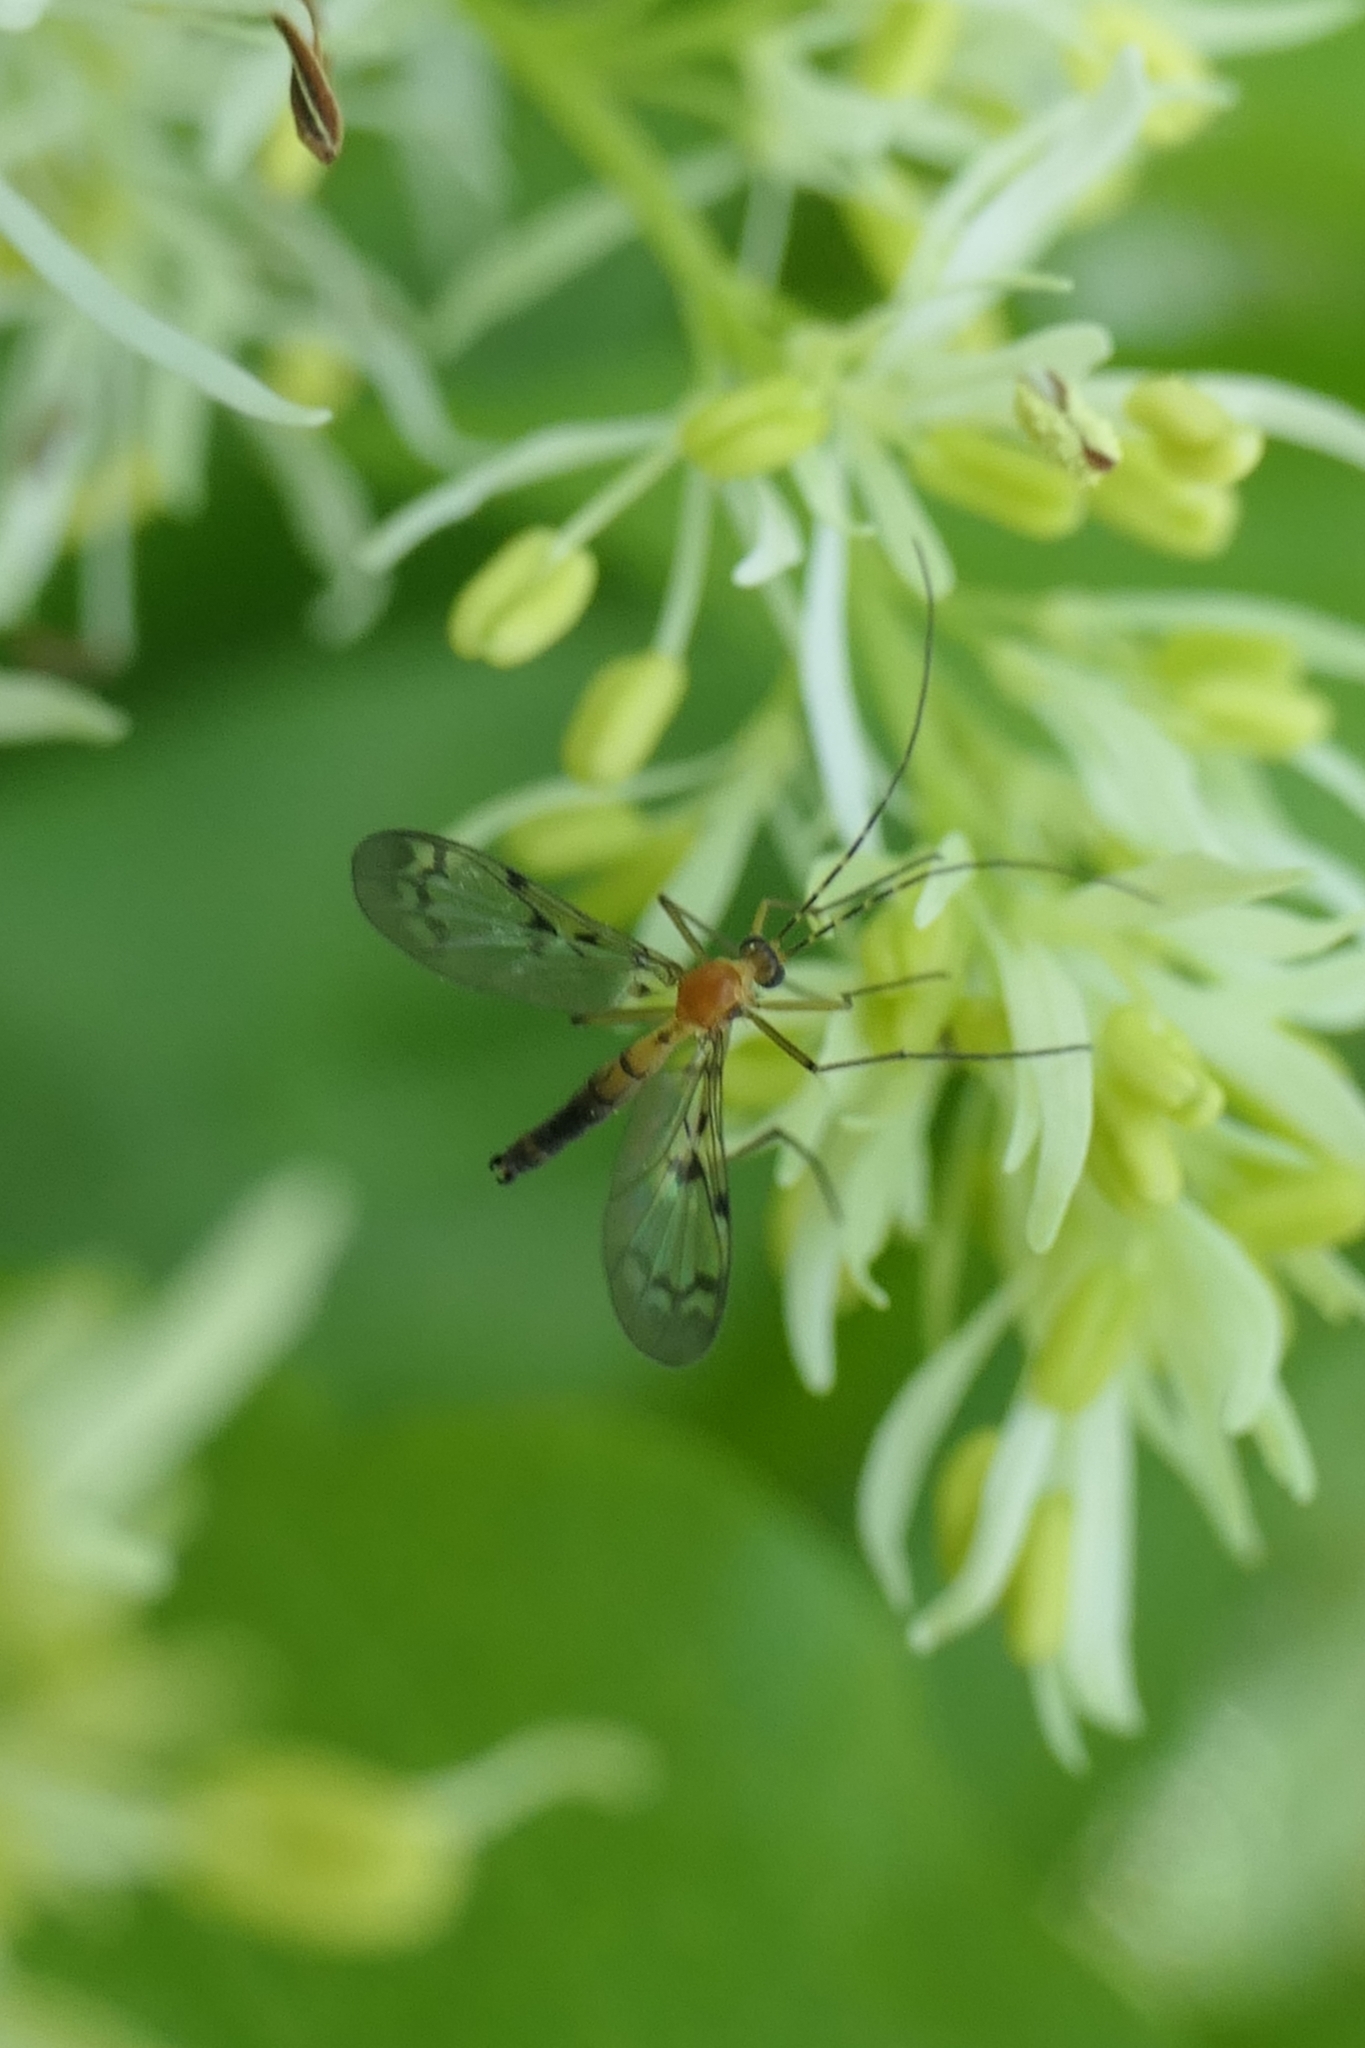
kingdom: Animalia
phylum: Arthropoda
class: Insecta
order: Diptera
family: Keroplatidae
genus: Chiasmoneura
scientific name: Chiasmoneura milligani
